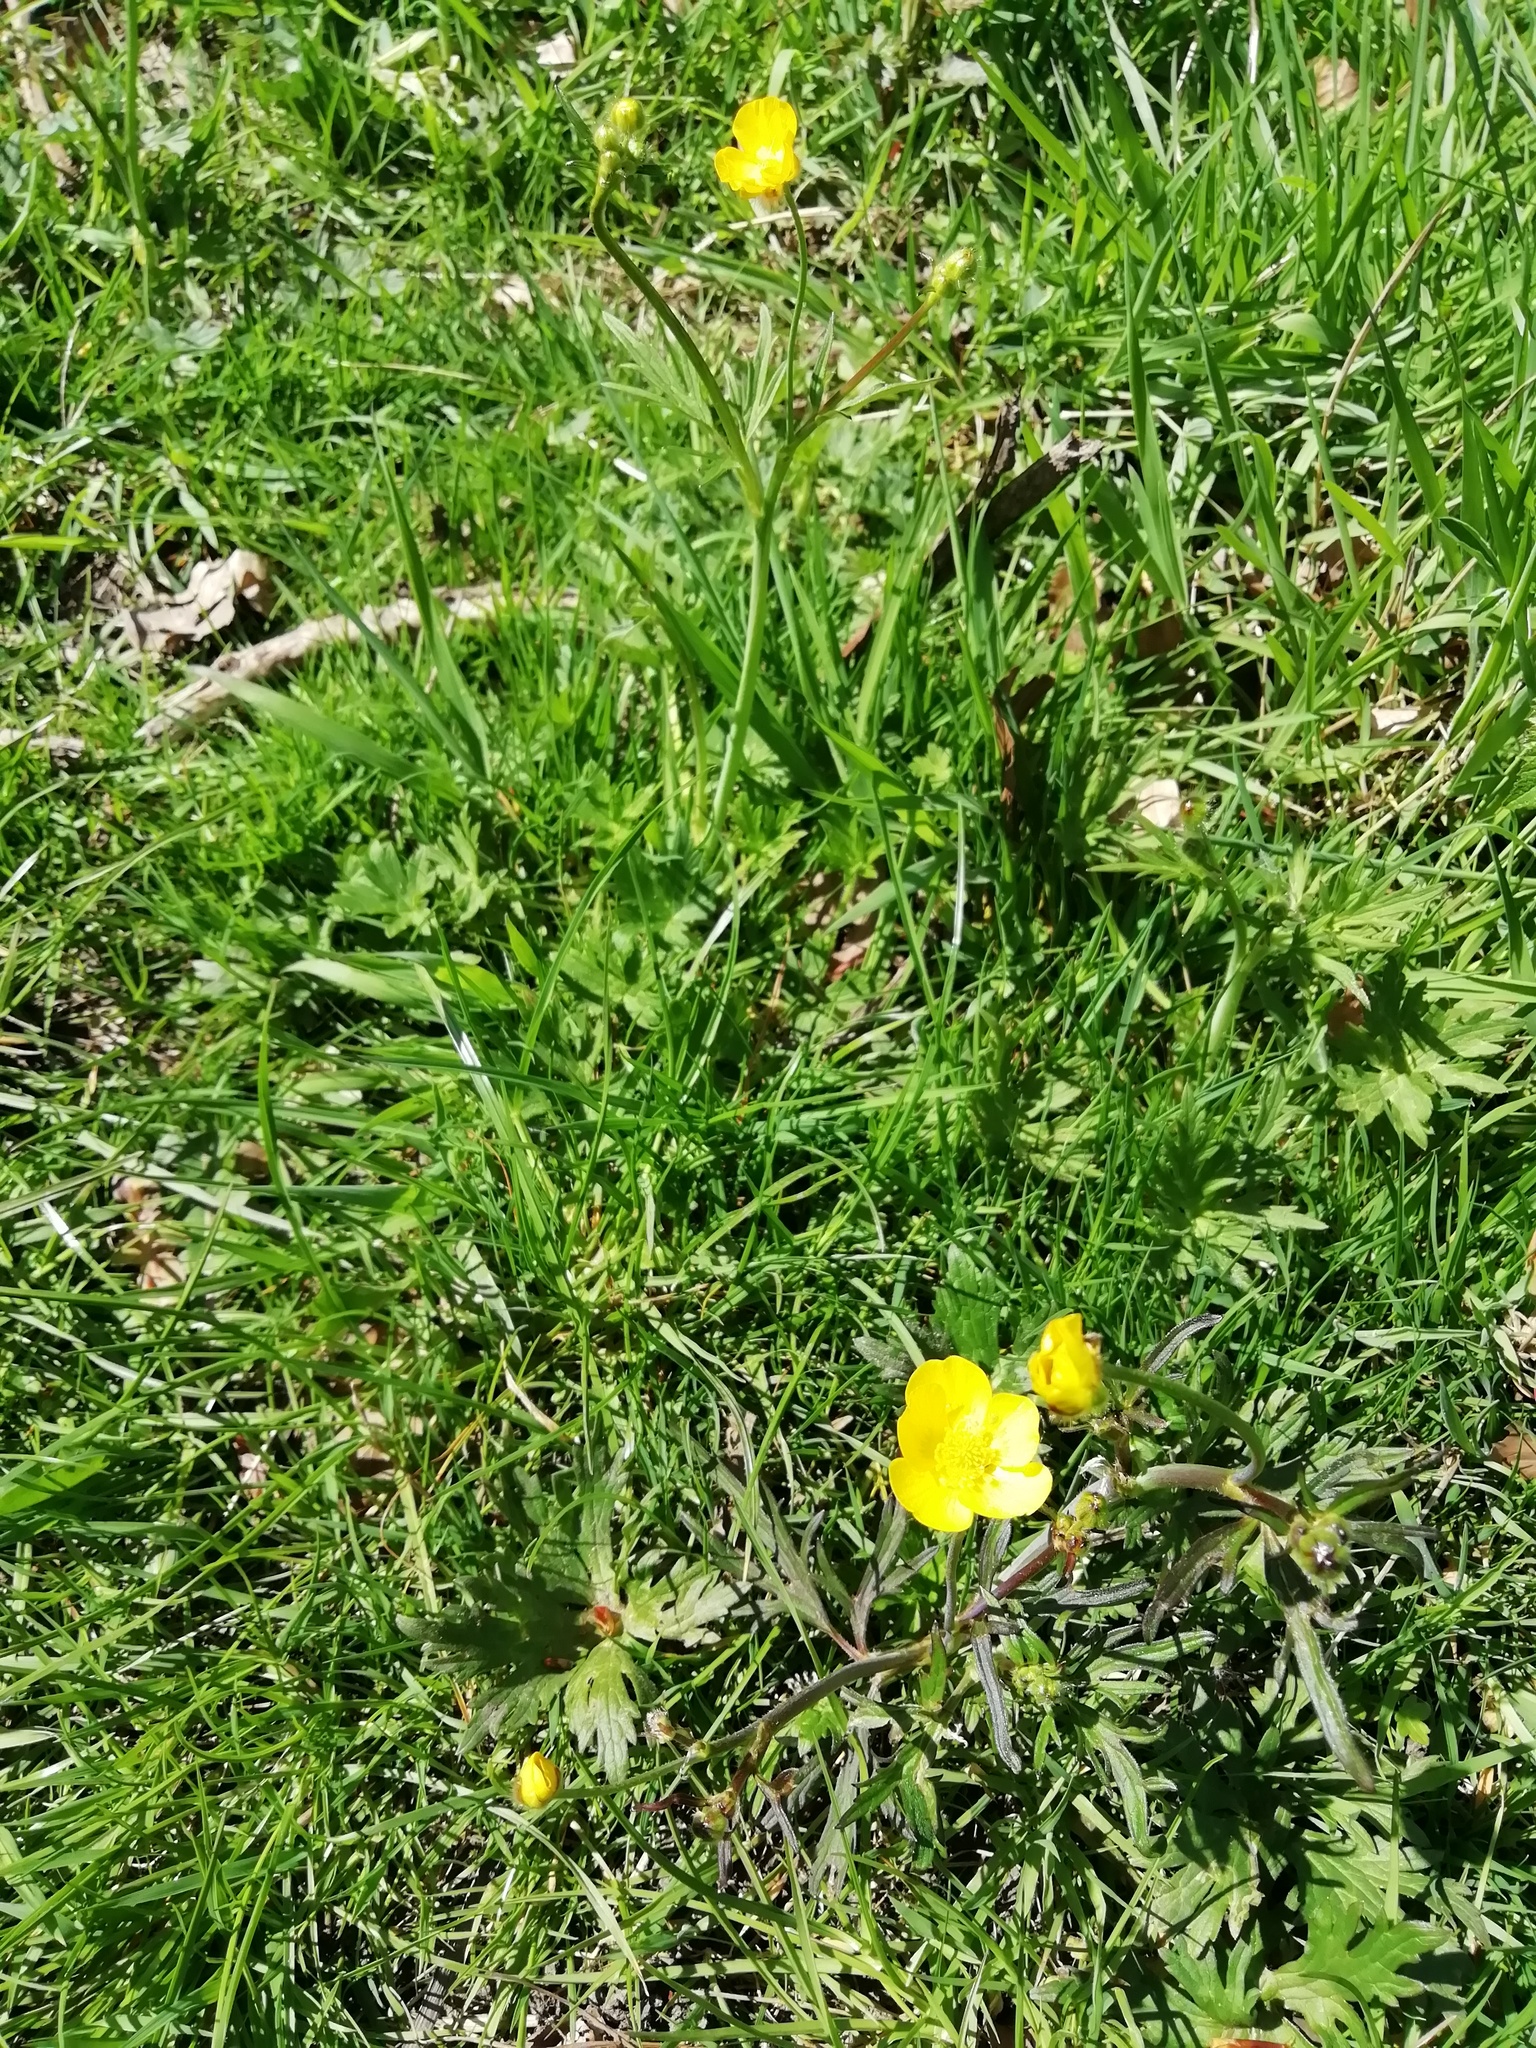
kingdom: Plantae
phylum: Tracheophyta
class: Magnoliopsida
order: Ranunculales
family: Ranunculaceae
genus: Ranunculus
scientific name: Ranunculus acris
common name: Meadow buttercup
